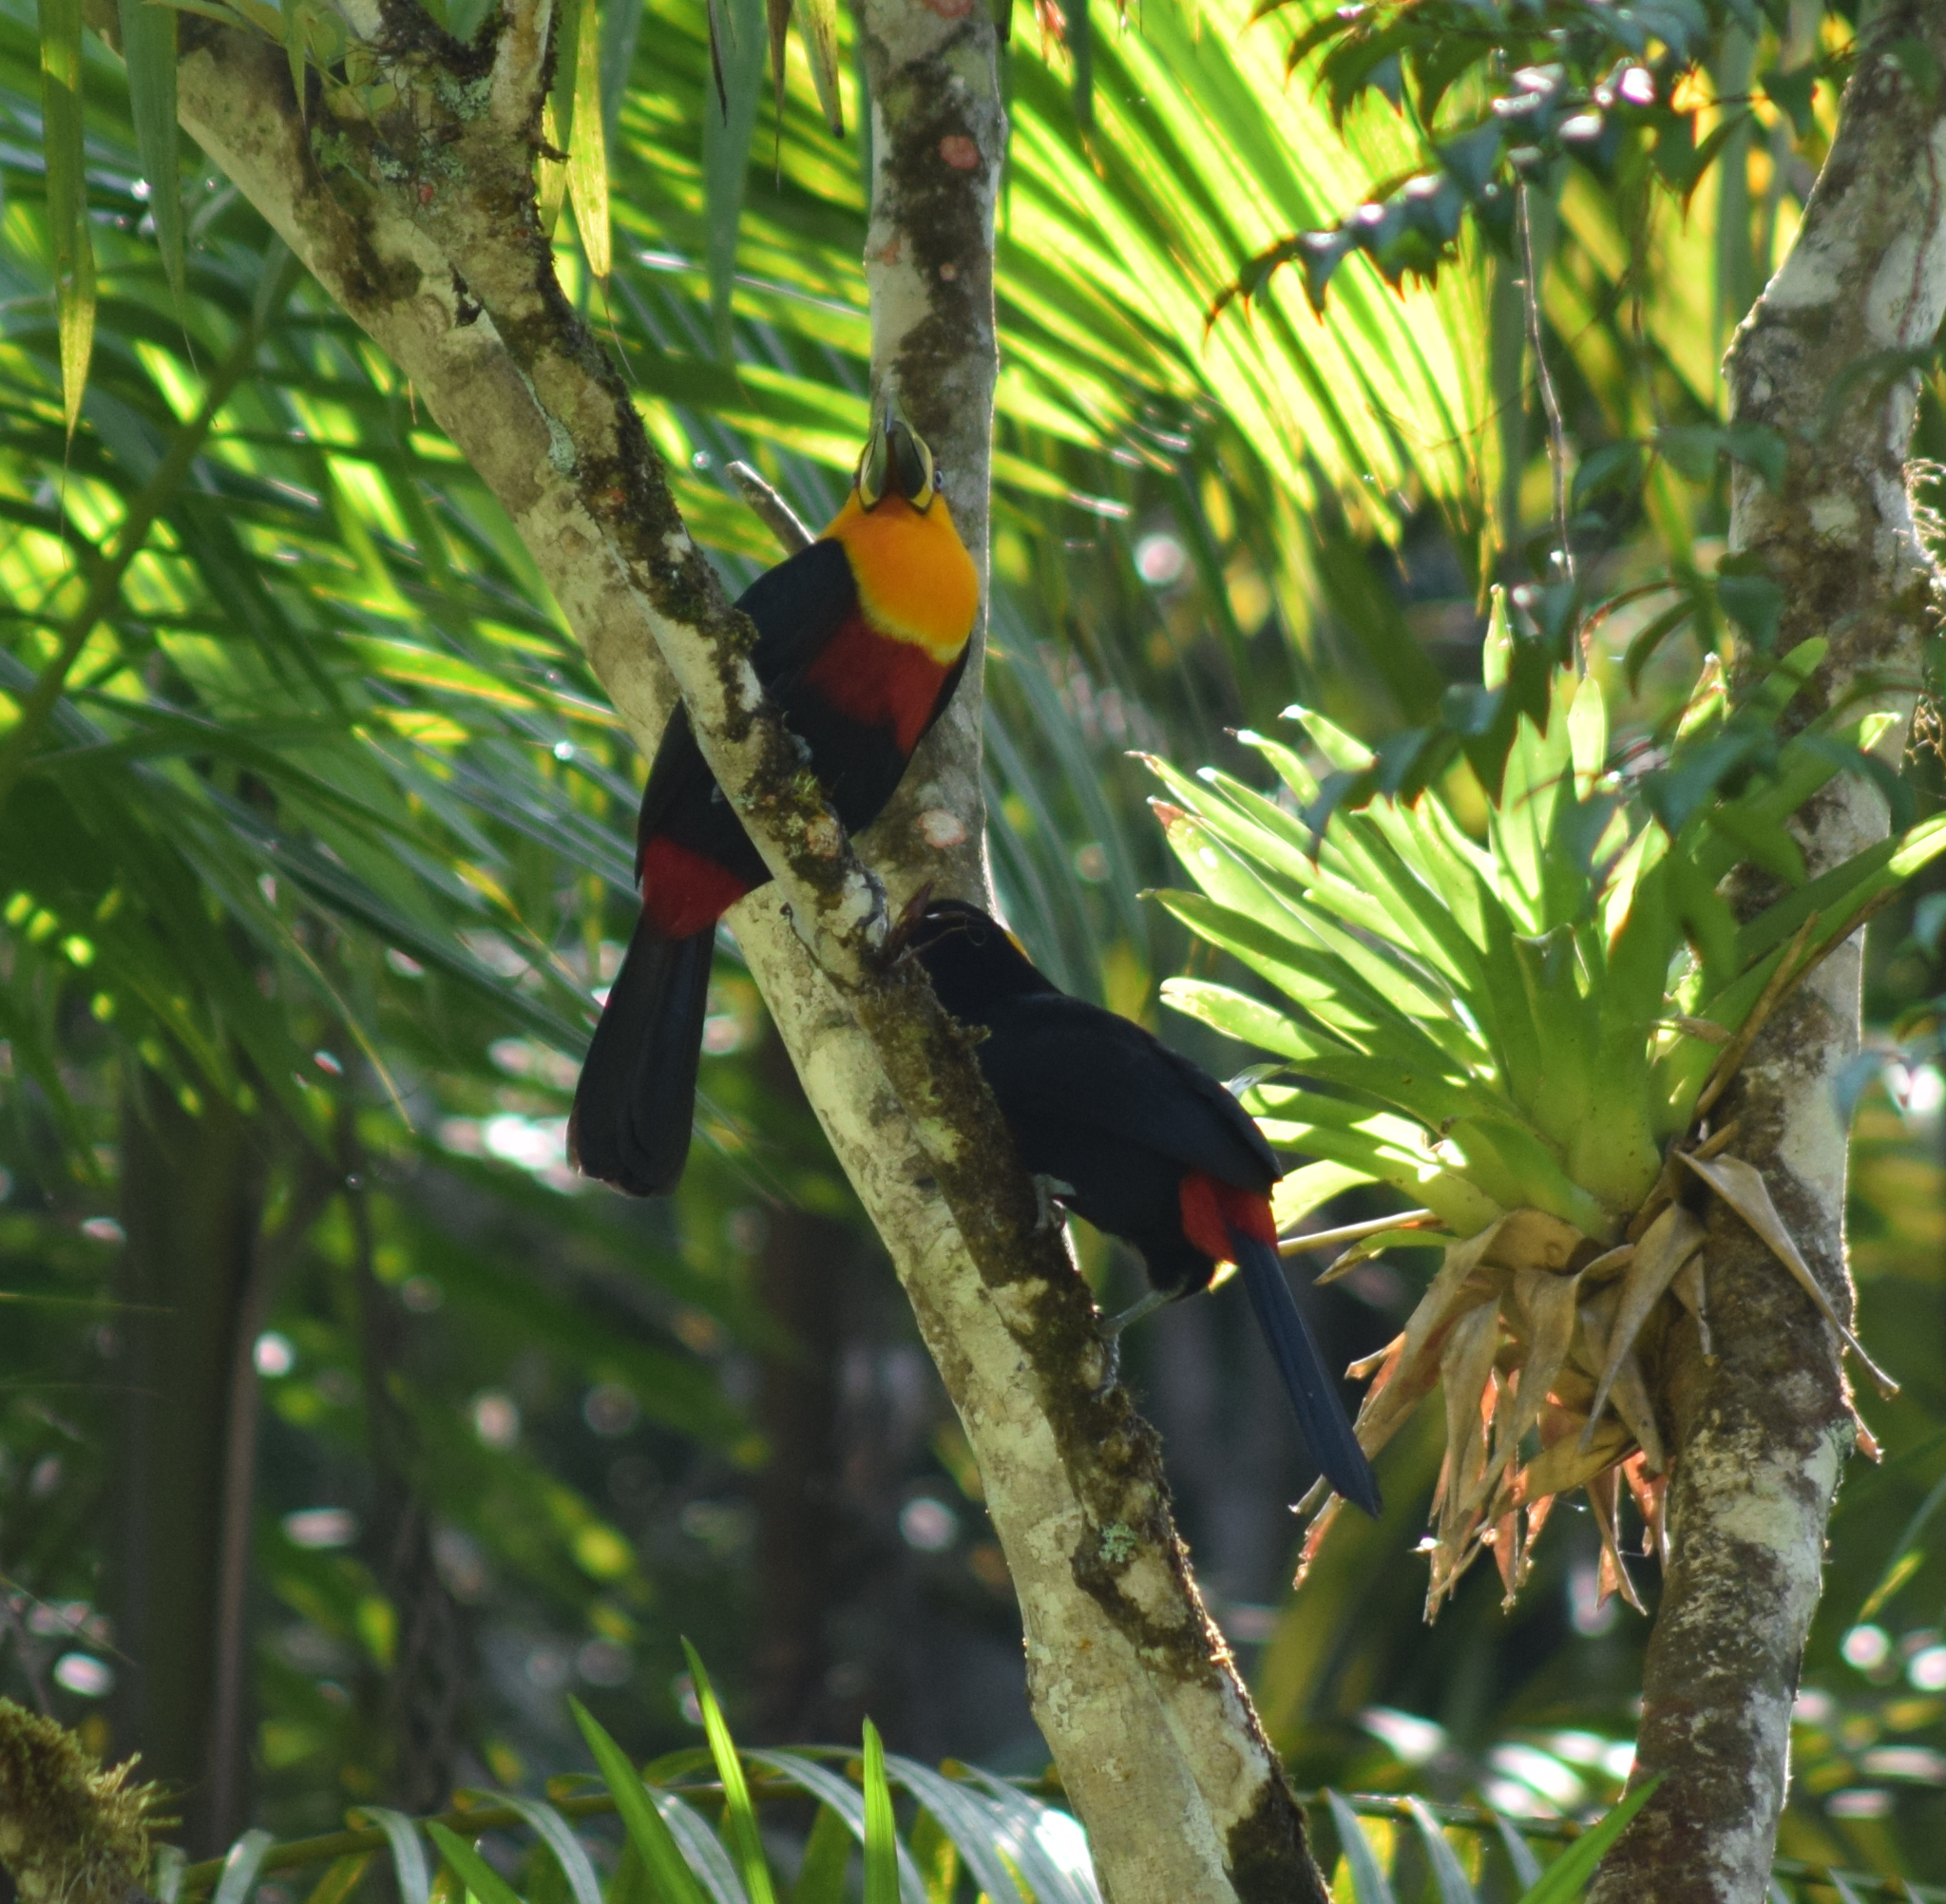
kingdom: Animalia
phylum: Chordata
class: Aves
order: Piciformes
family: Ramphastidae
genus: Ramphastos
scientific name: Ramphastos vitellinus
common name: Channel-billed toucan
